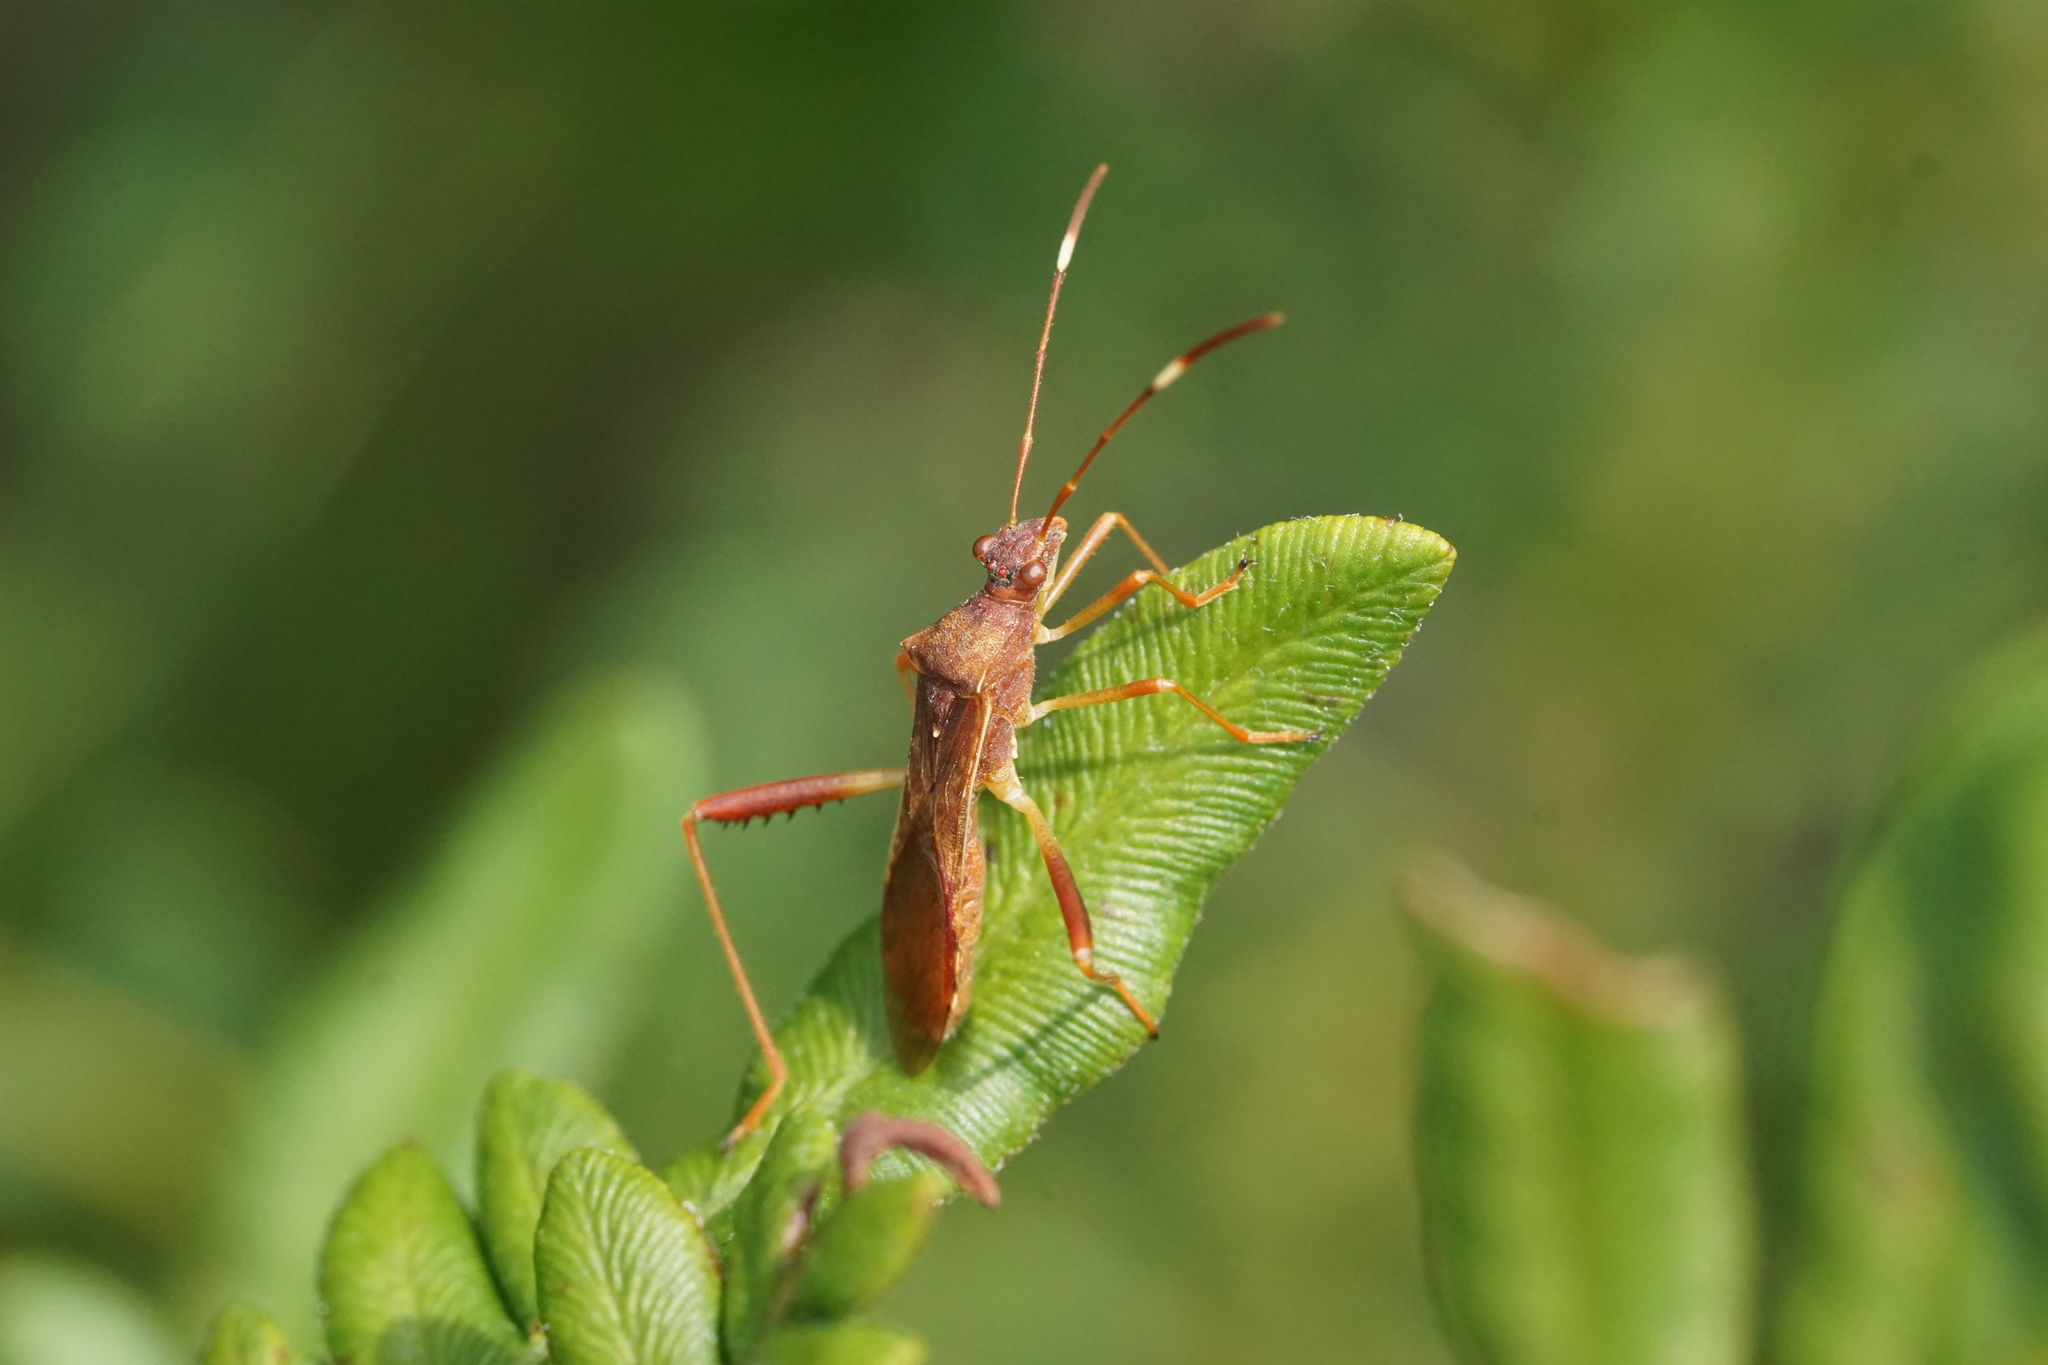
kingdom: Animalia
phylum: Arthropoda
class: Insecta
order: Hemiptera
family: Alydidae
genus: Megalotomus
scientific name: Megalotomus quinquespinosus
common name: Lupine bug
